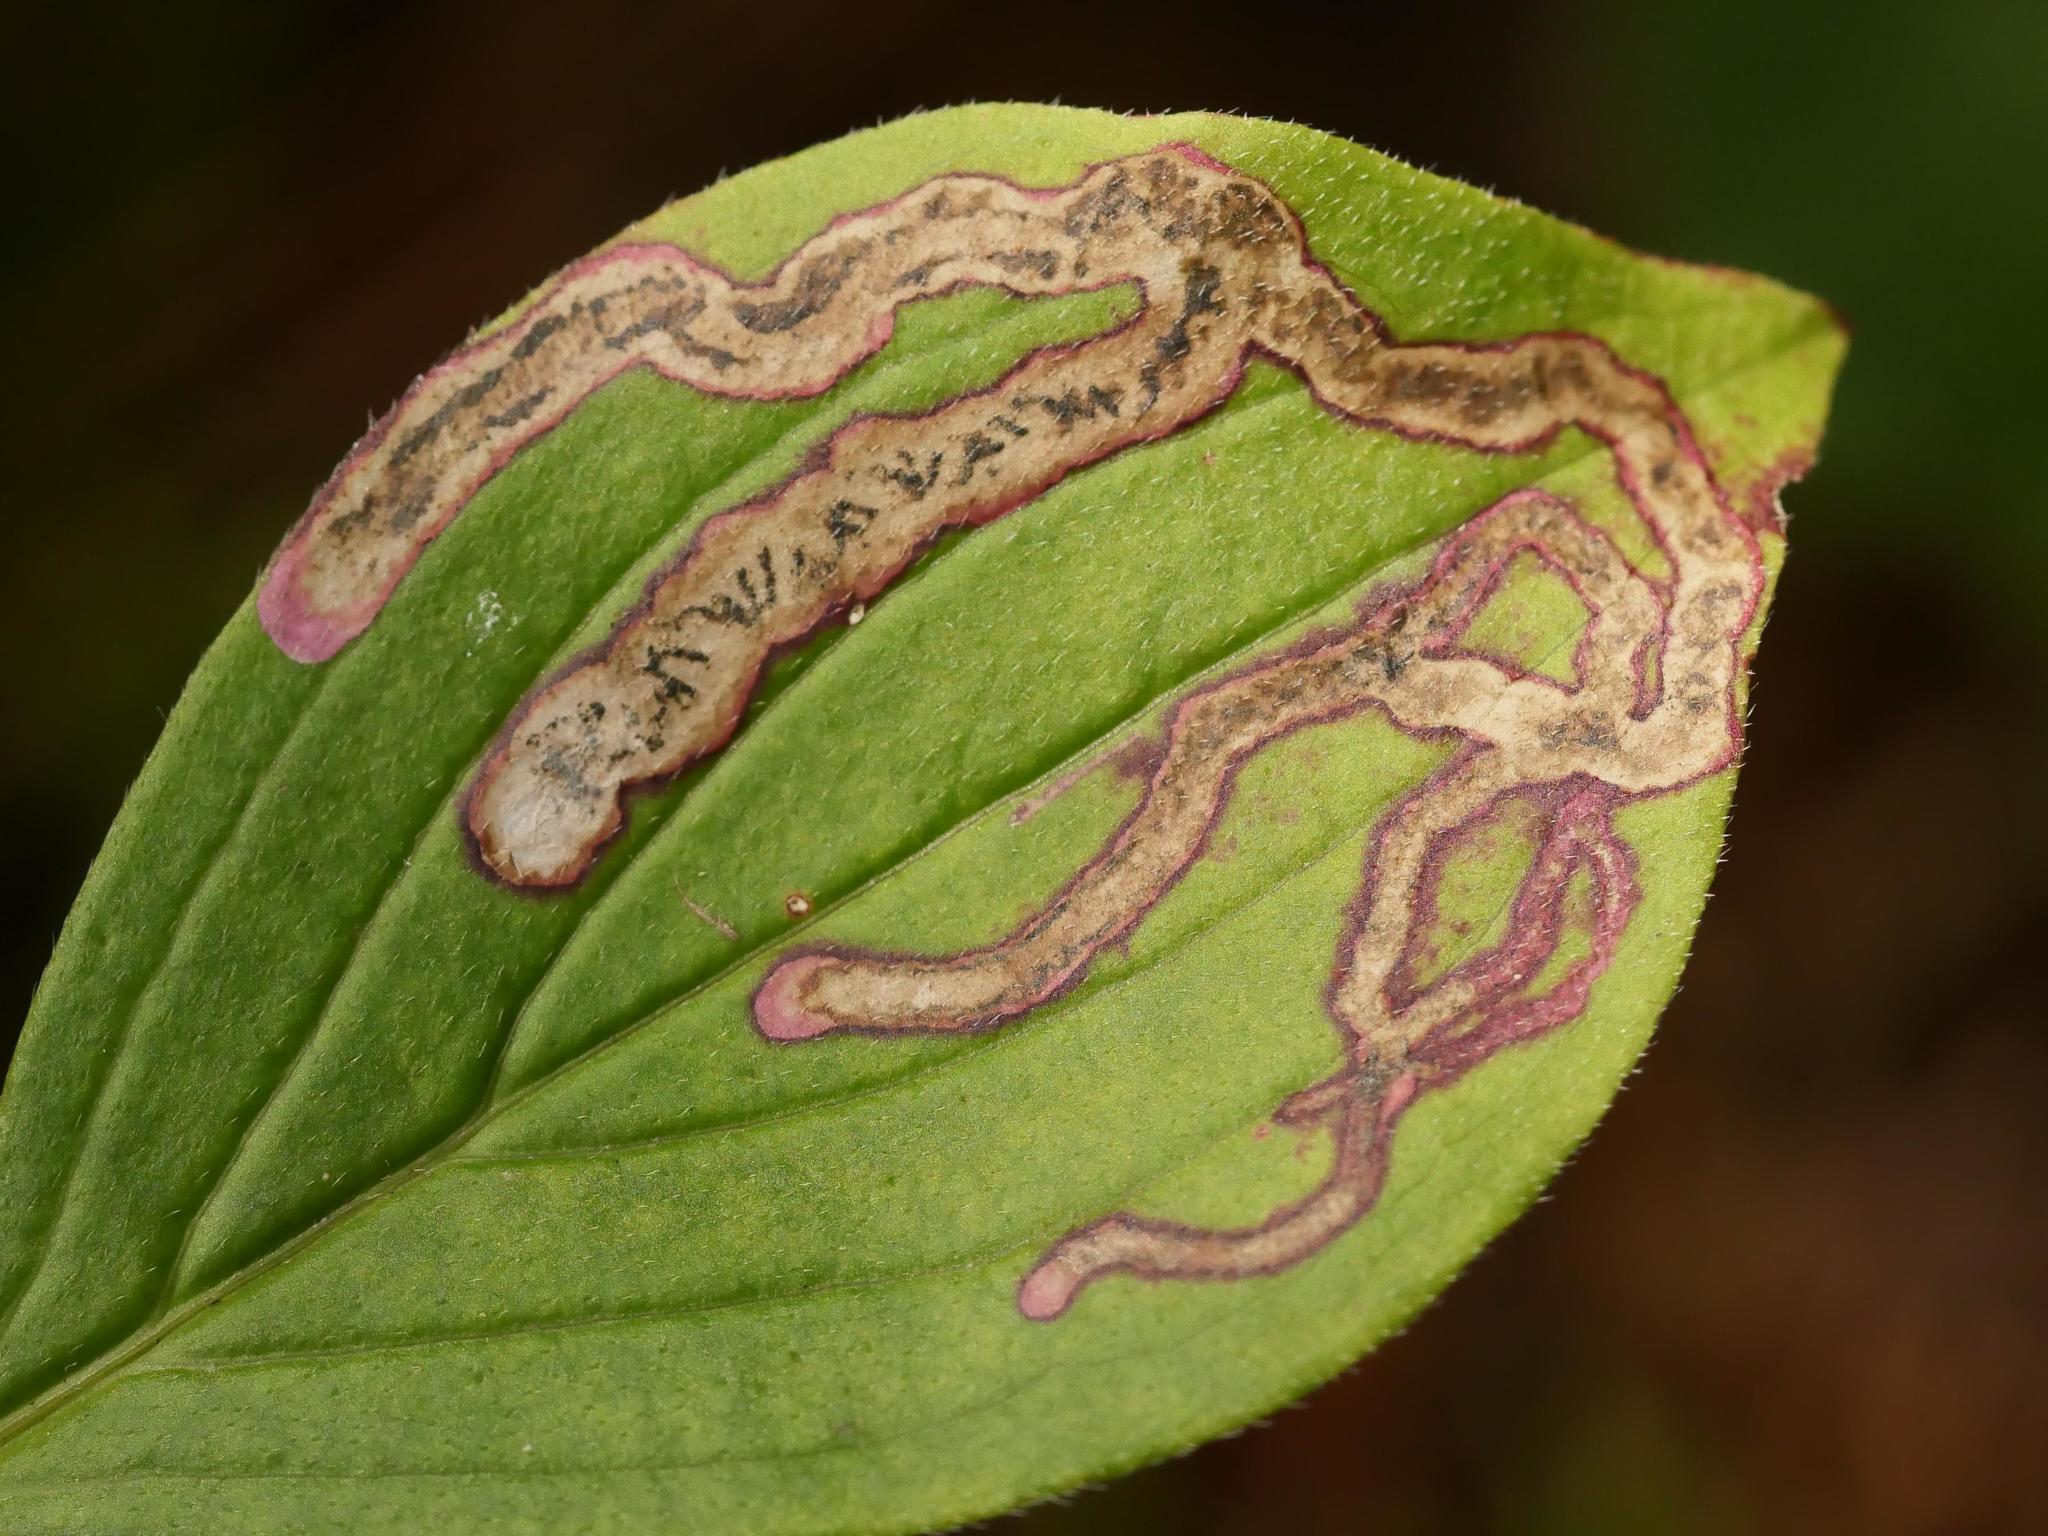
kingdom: Animalia
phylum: Arthropoda
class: Insecta
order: Diptera
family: Agromyzidae
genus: Phytomyza
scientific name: Phytomyza agromyzina
